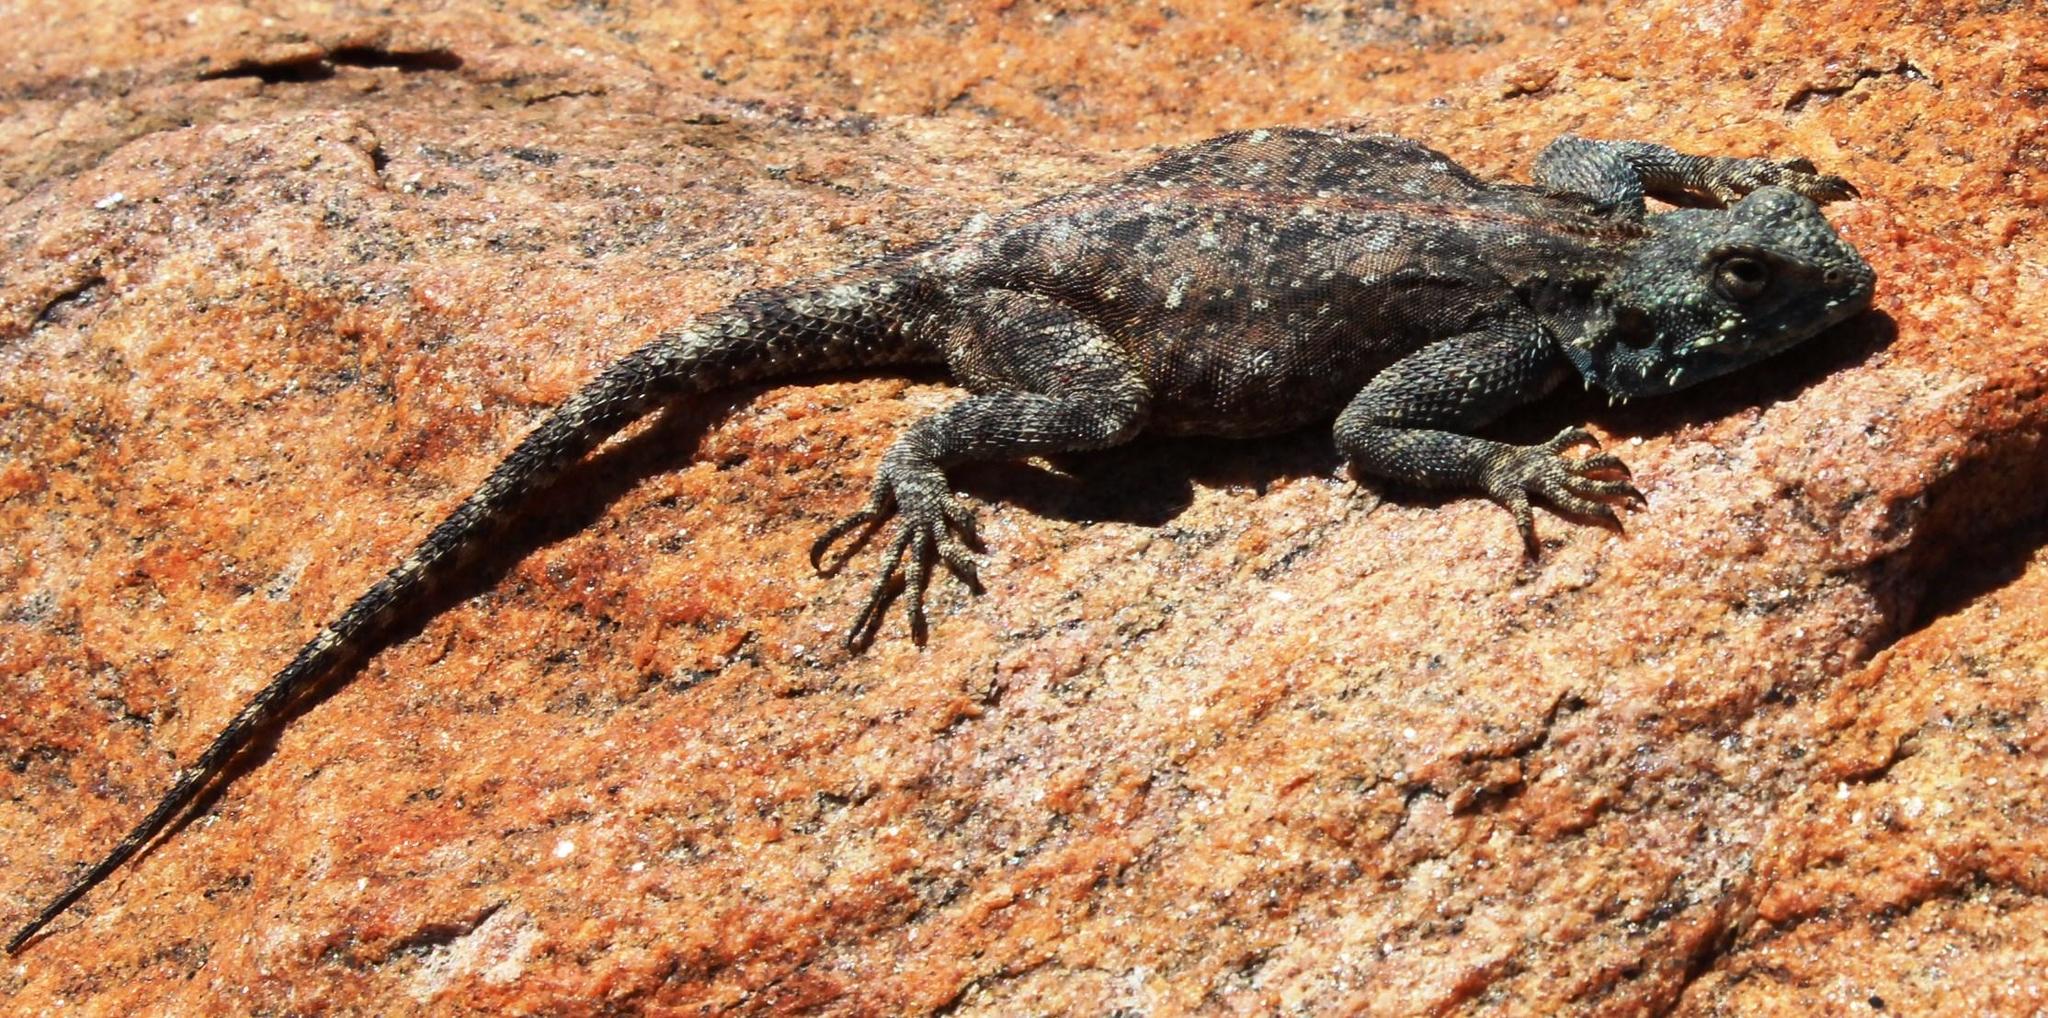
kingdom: Animalia
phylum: Chordata
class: Squamata
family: Agamidae
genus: Agama
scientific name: Agama atra
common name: Southern african rock agama
